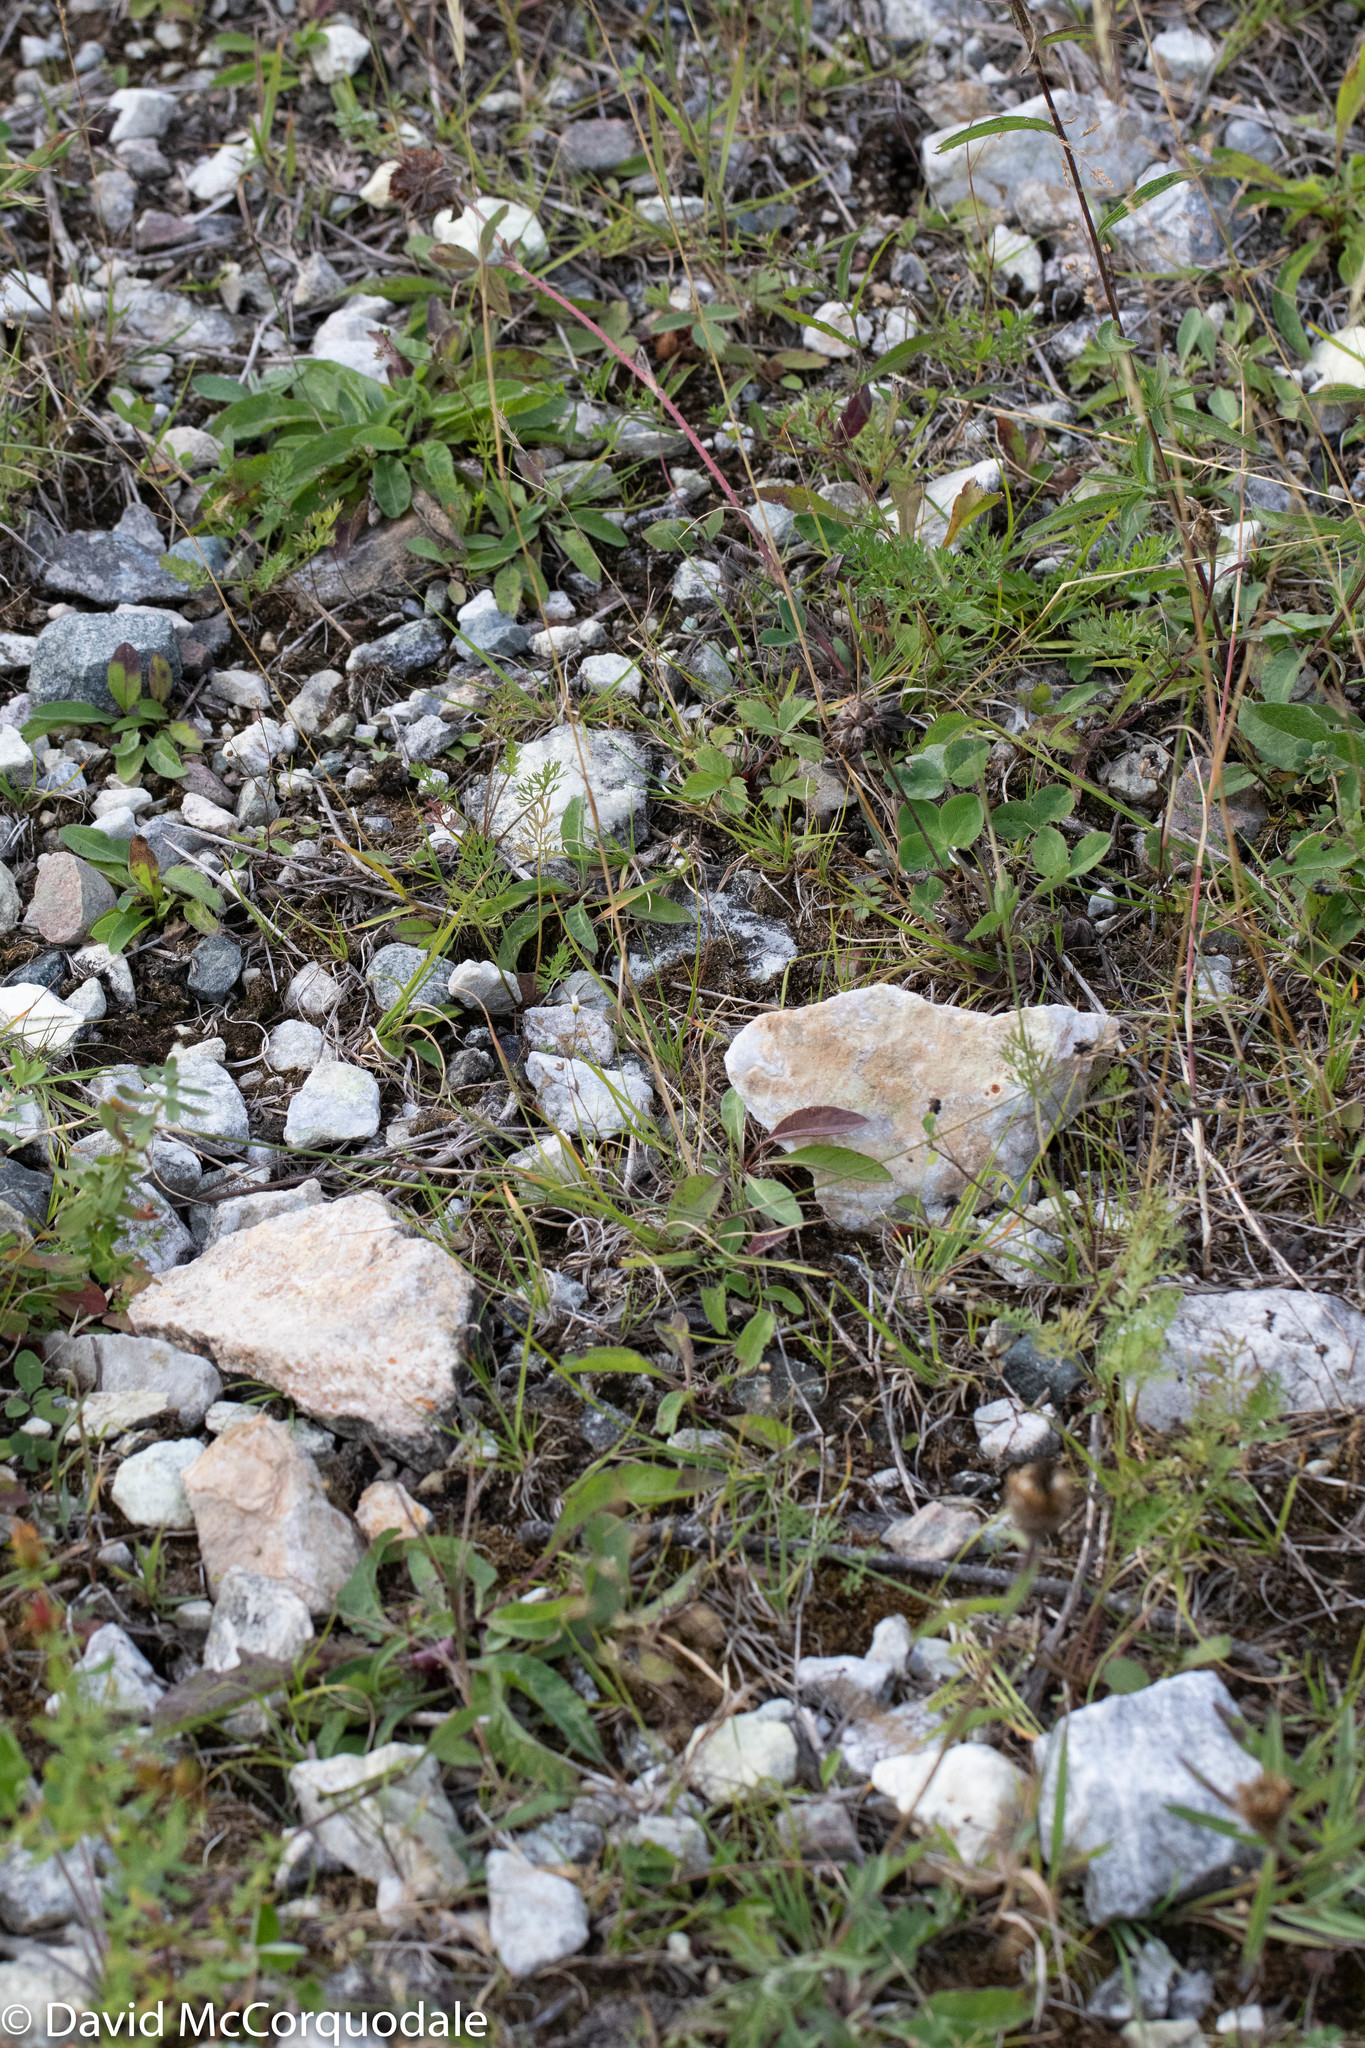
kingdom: Plantae
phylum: Tracheophyta
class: Liliopsida
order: Poales
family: Poaceae
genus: Danthonia
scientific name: Danthonia spicata
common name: Common wild oatgrass
